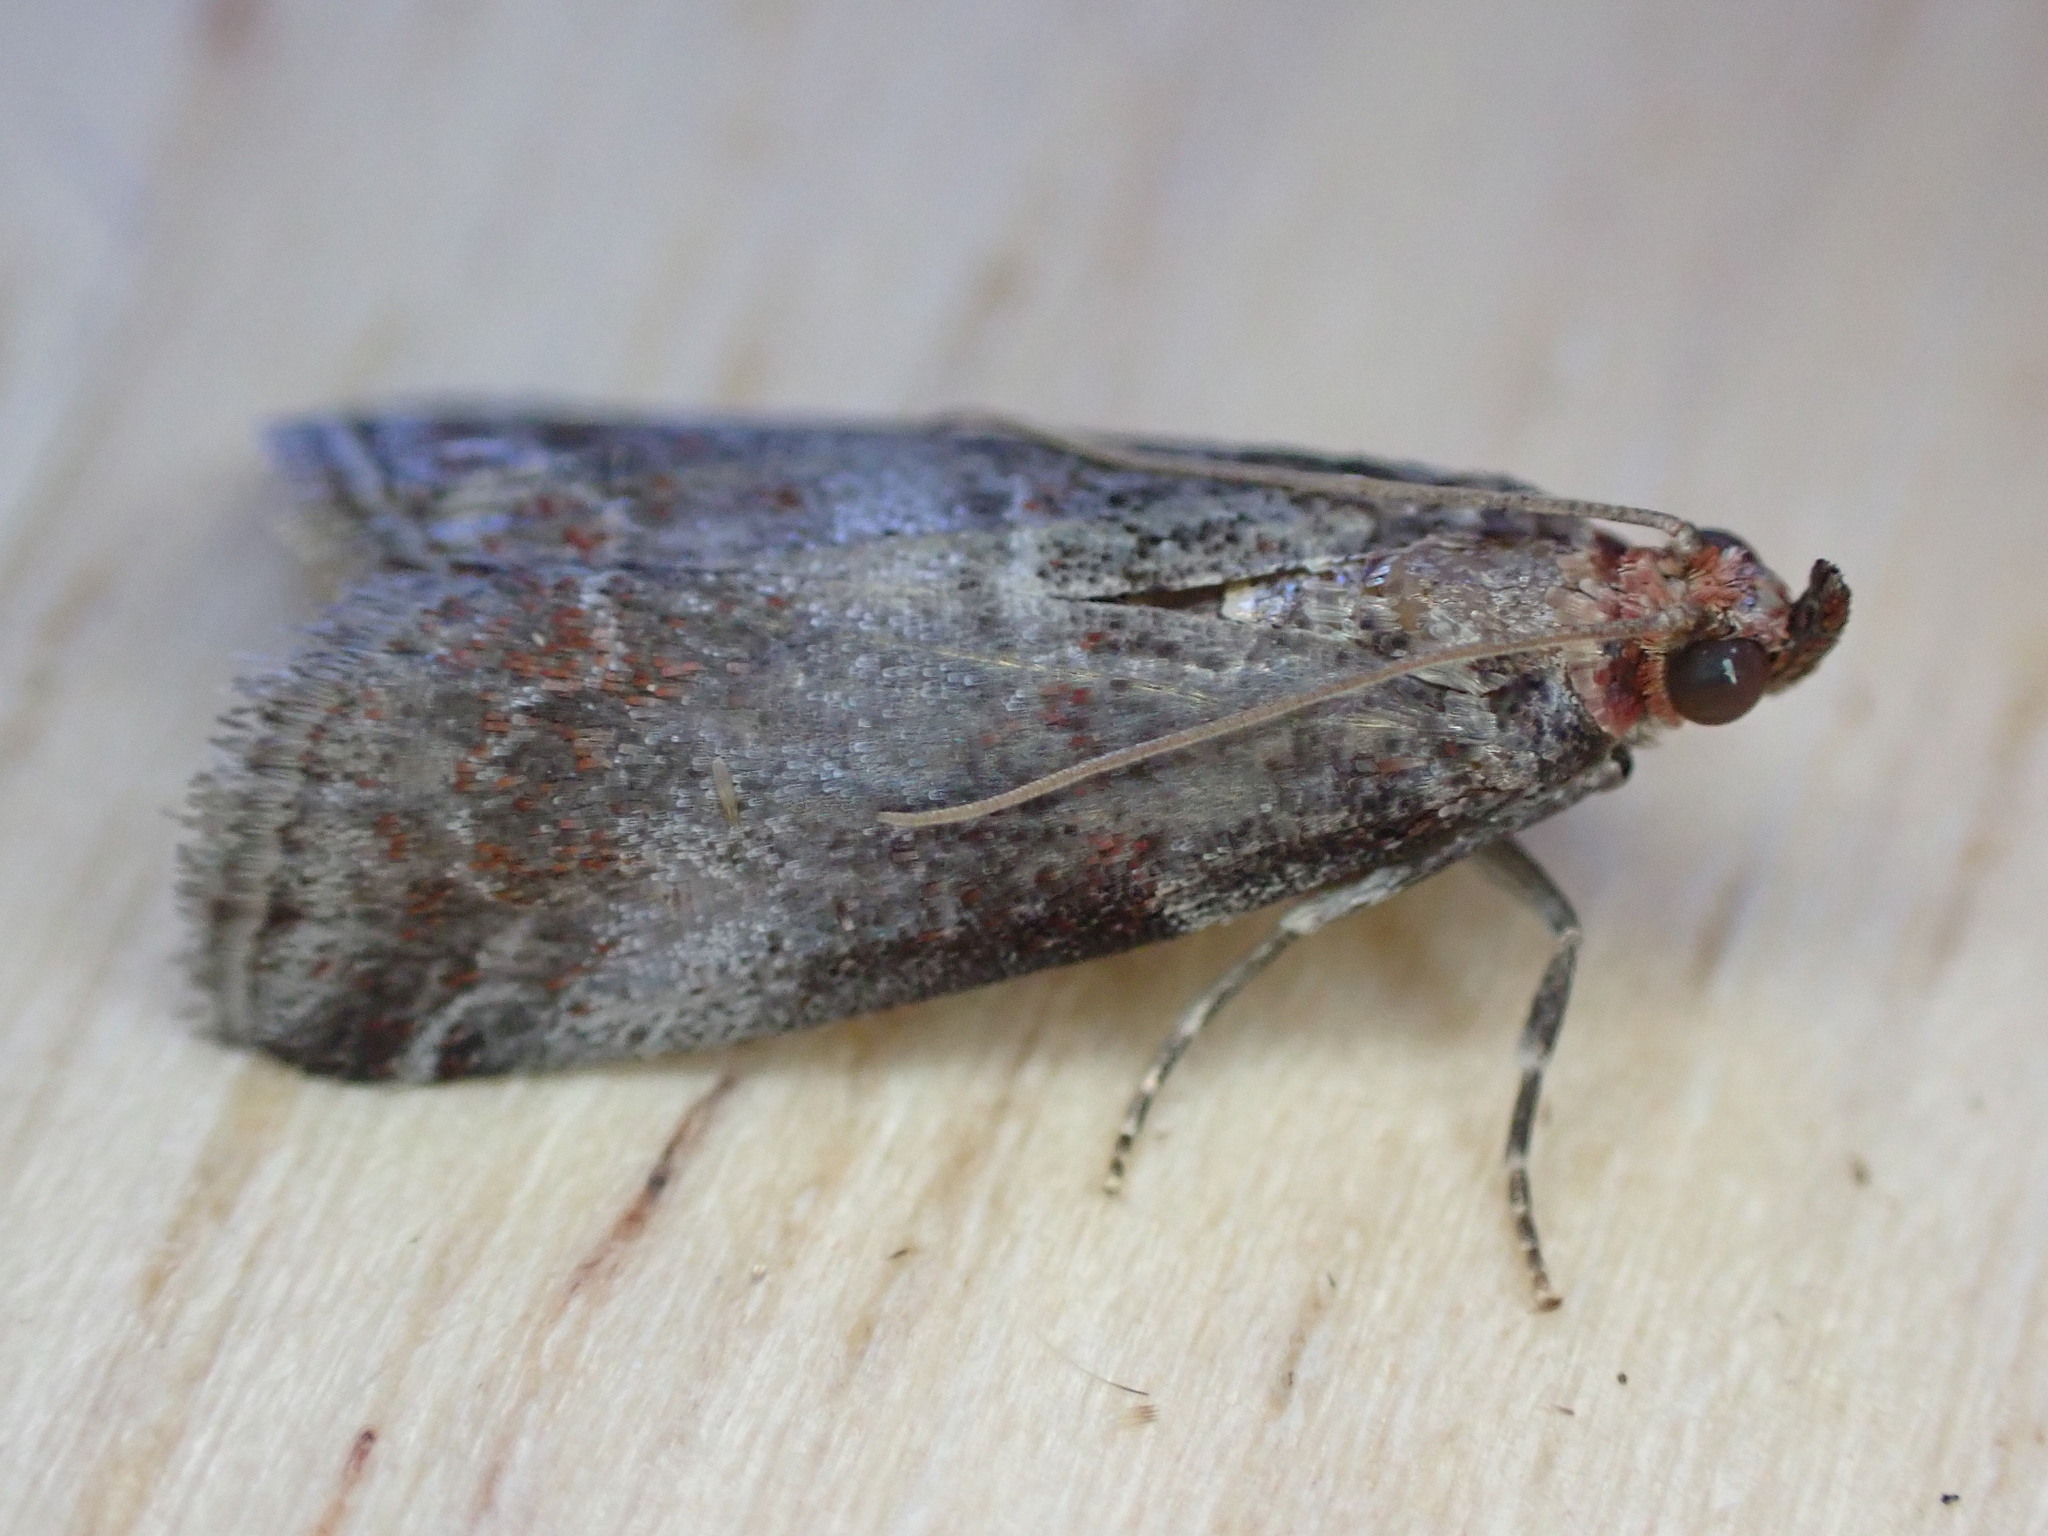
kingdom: Animalia
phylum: Arthropoda
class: Insecta
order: Lepidoptera
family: Pyralidae
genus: Acrobasis
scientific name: Acrobasis advenella
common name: Grey knot-horn
